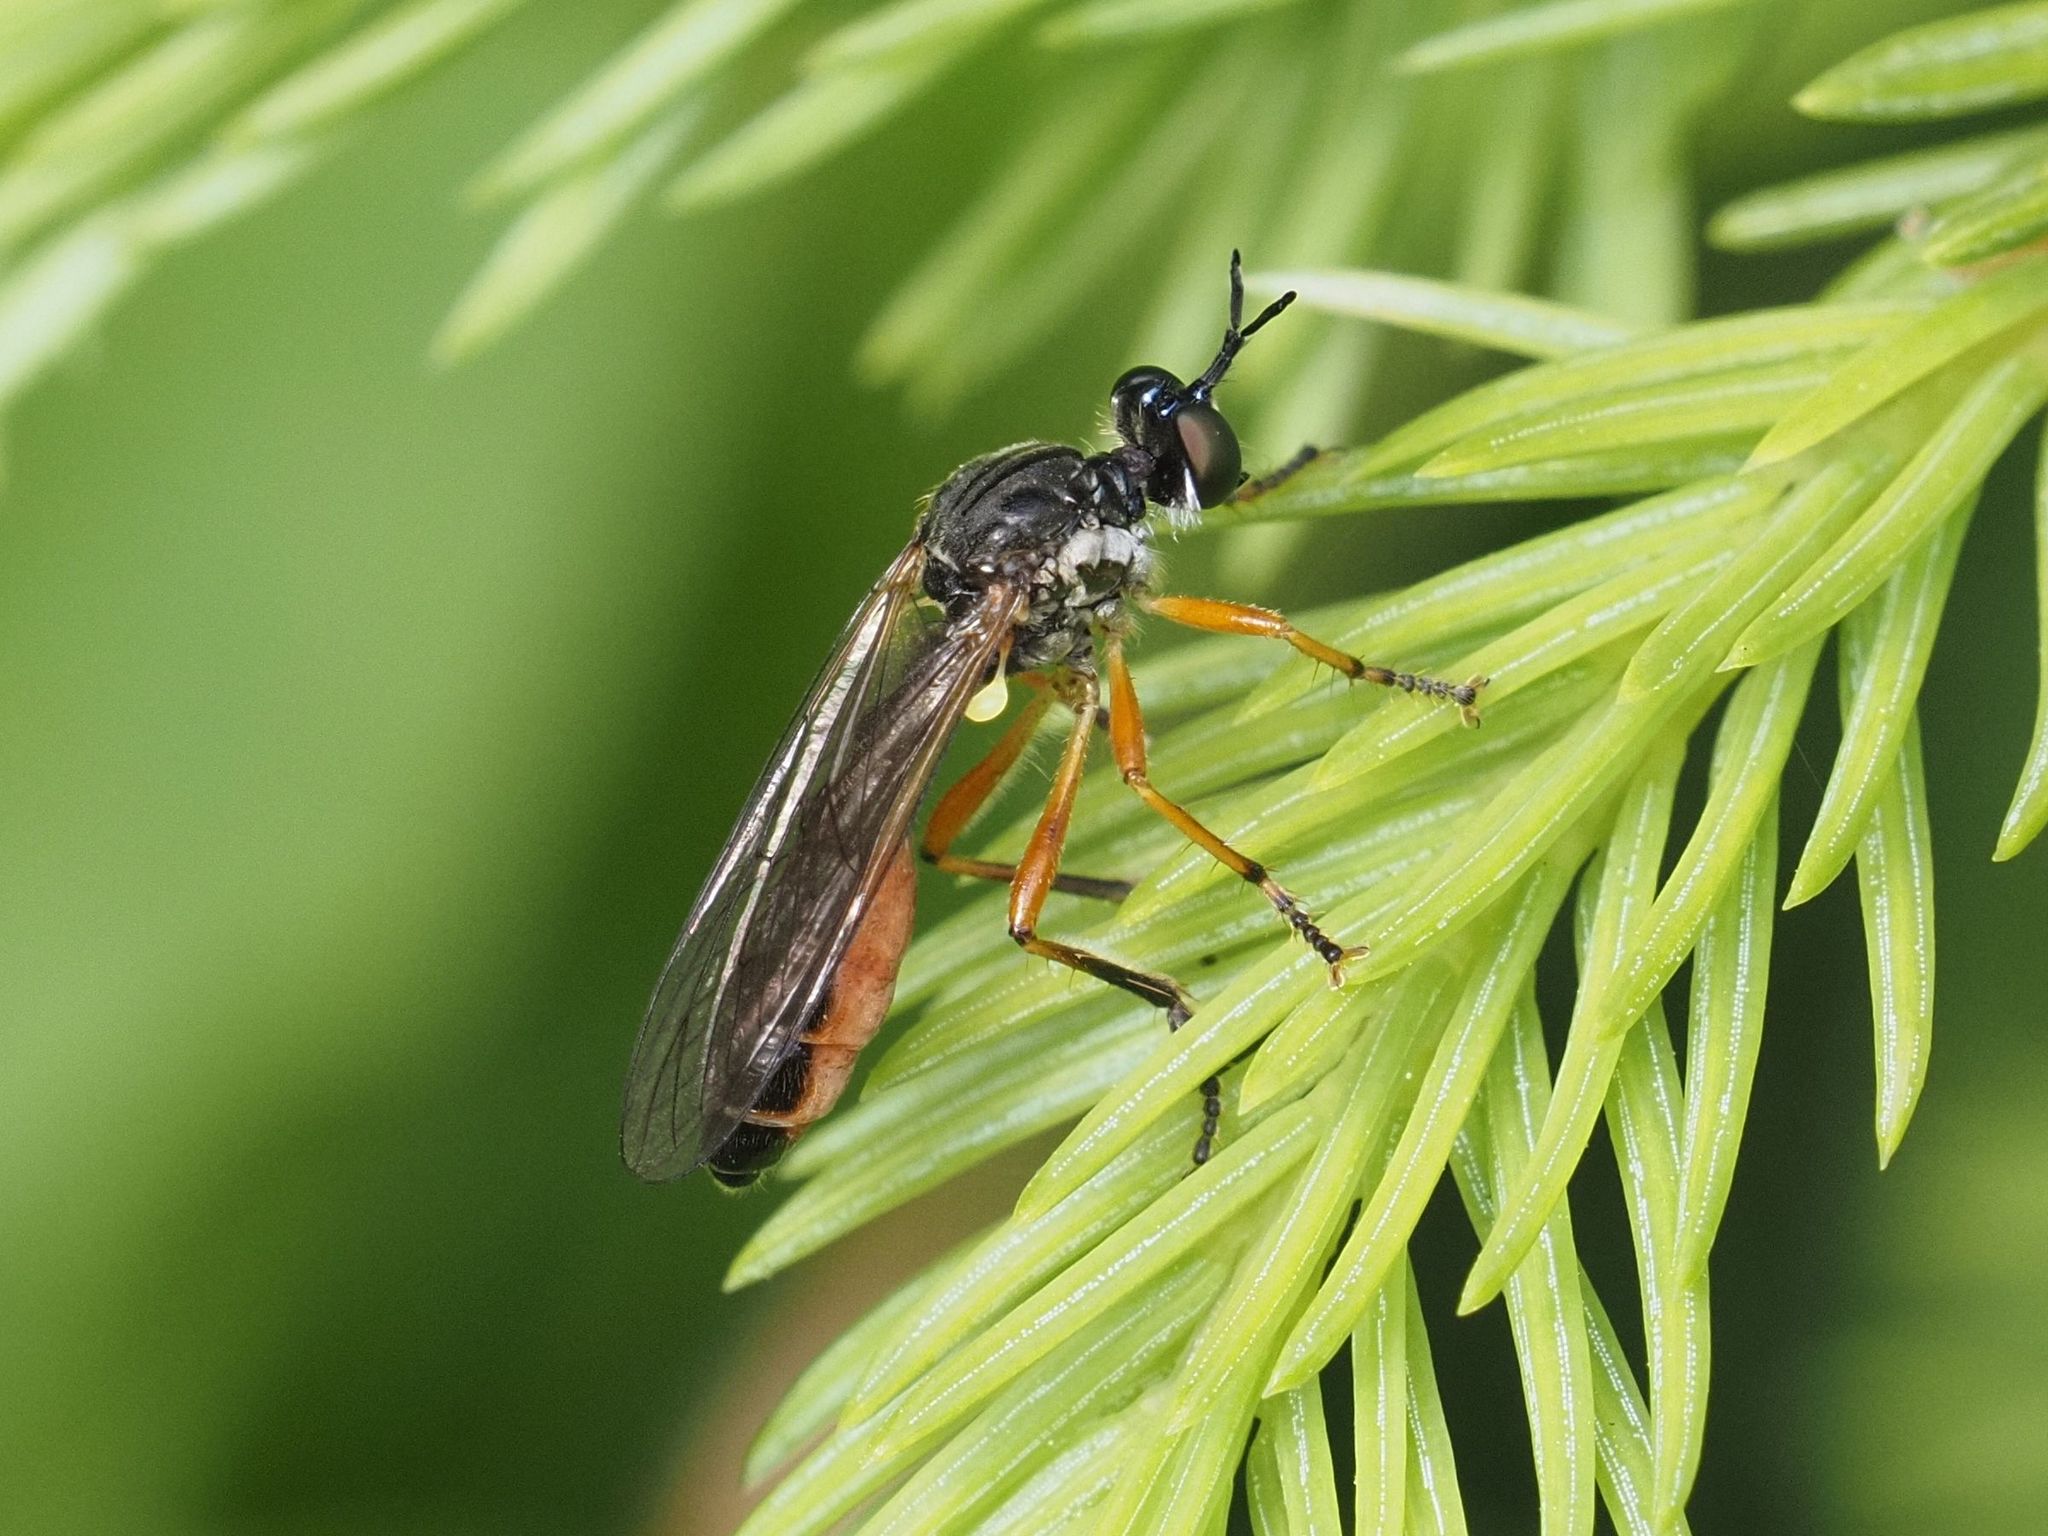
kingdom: Animalia
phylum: Arthropoda
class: Insecta
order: Diptera
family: Asilidae
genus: Dioctria
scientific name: Dioctria hyalipennis
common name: Stripe-legged robberfly
